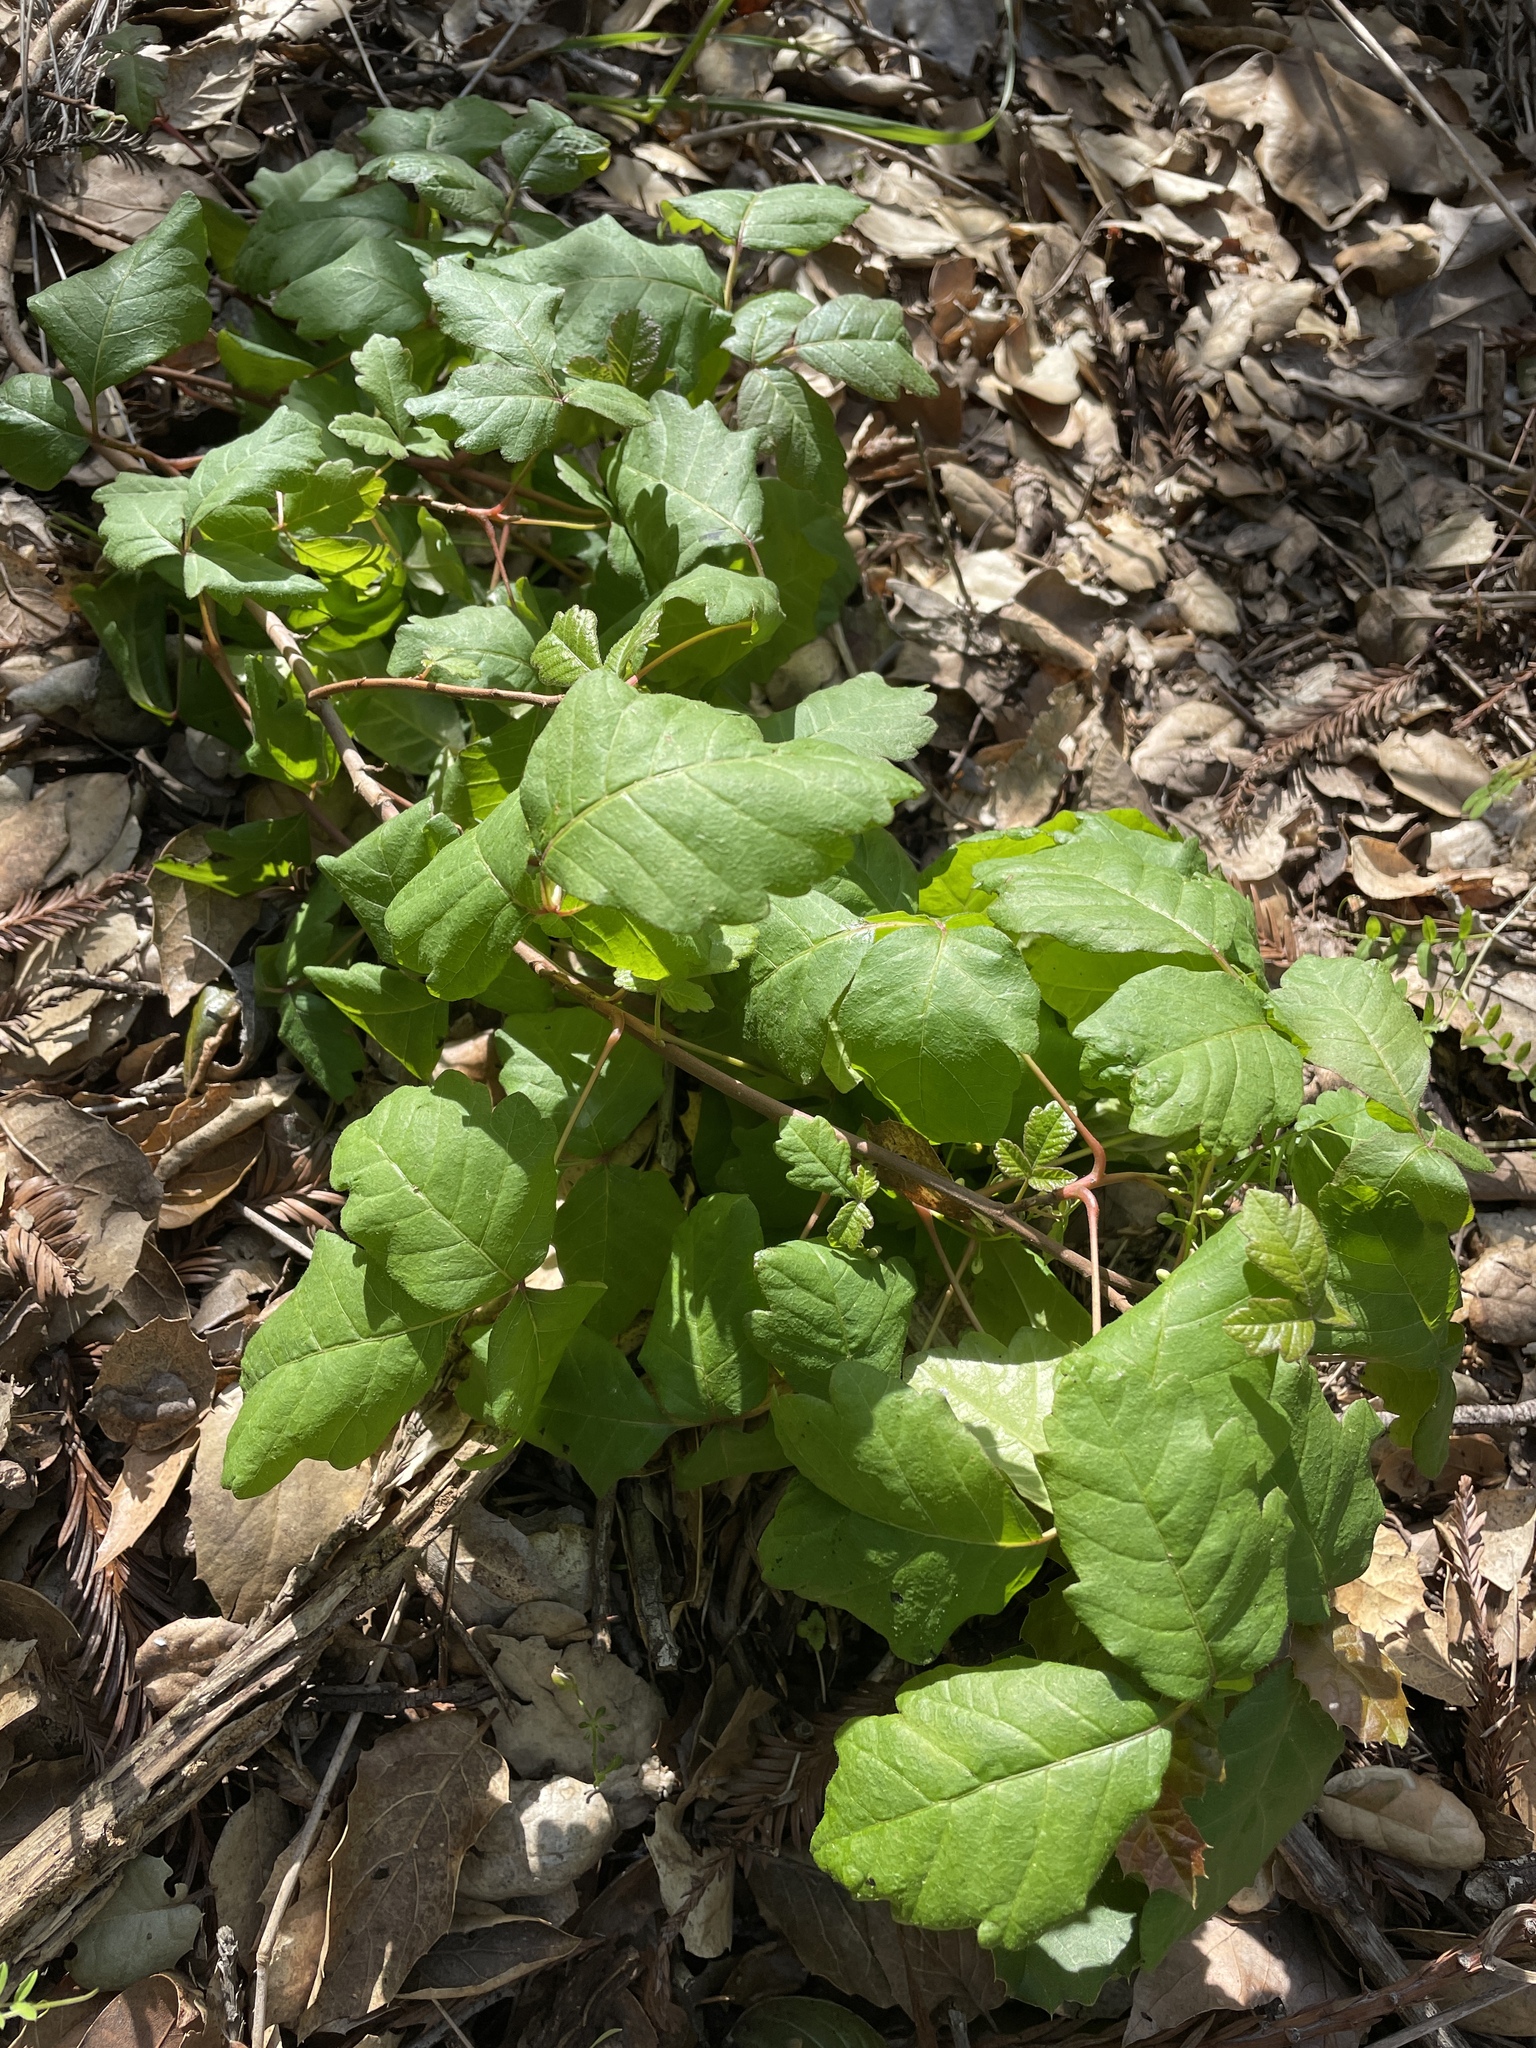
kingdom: Plantae
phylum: Tracheophyta
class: Magnoliopsida
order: Sapindales
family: Anacardiaceae
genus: Toxicodendron
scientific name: Toxicodendron diversilobum
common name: Pacific poison-oak
